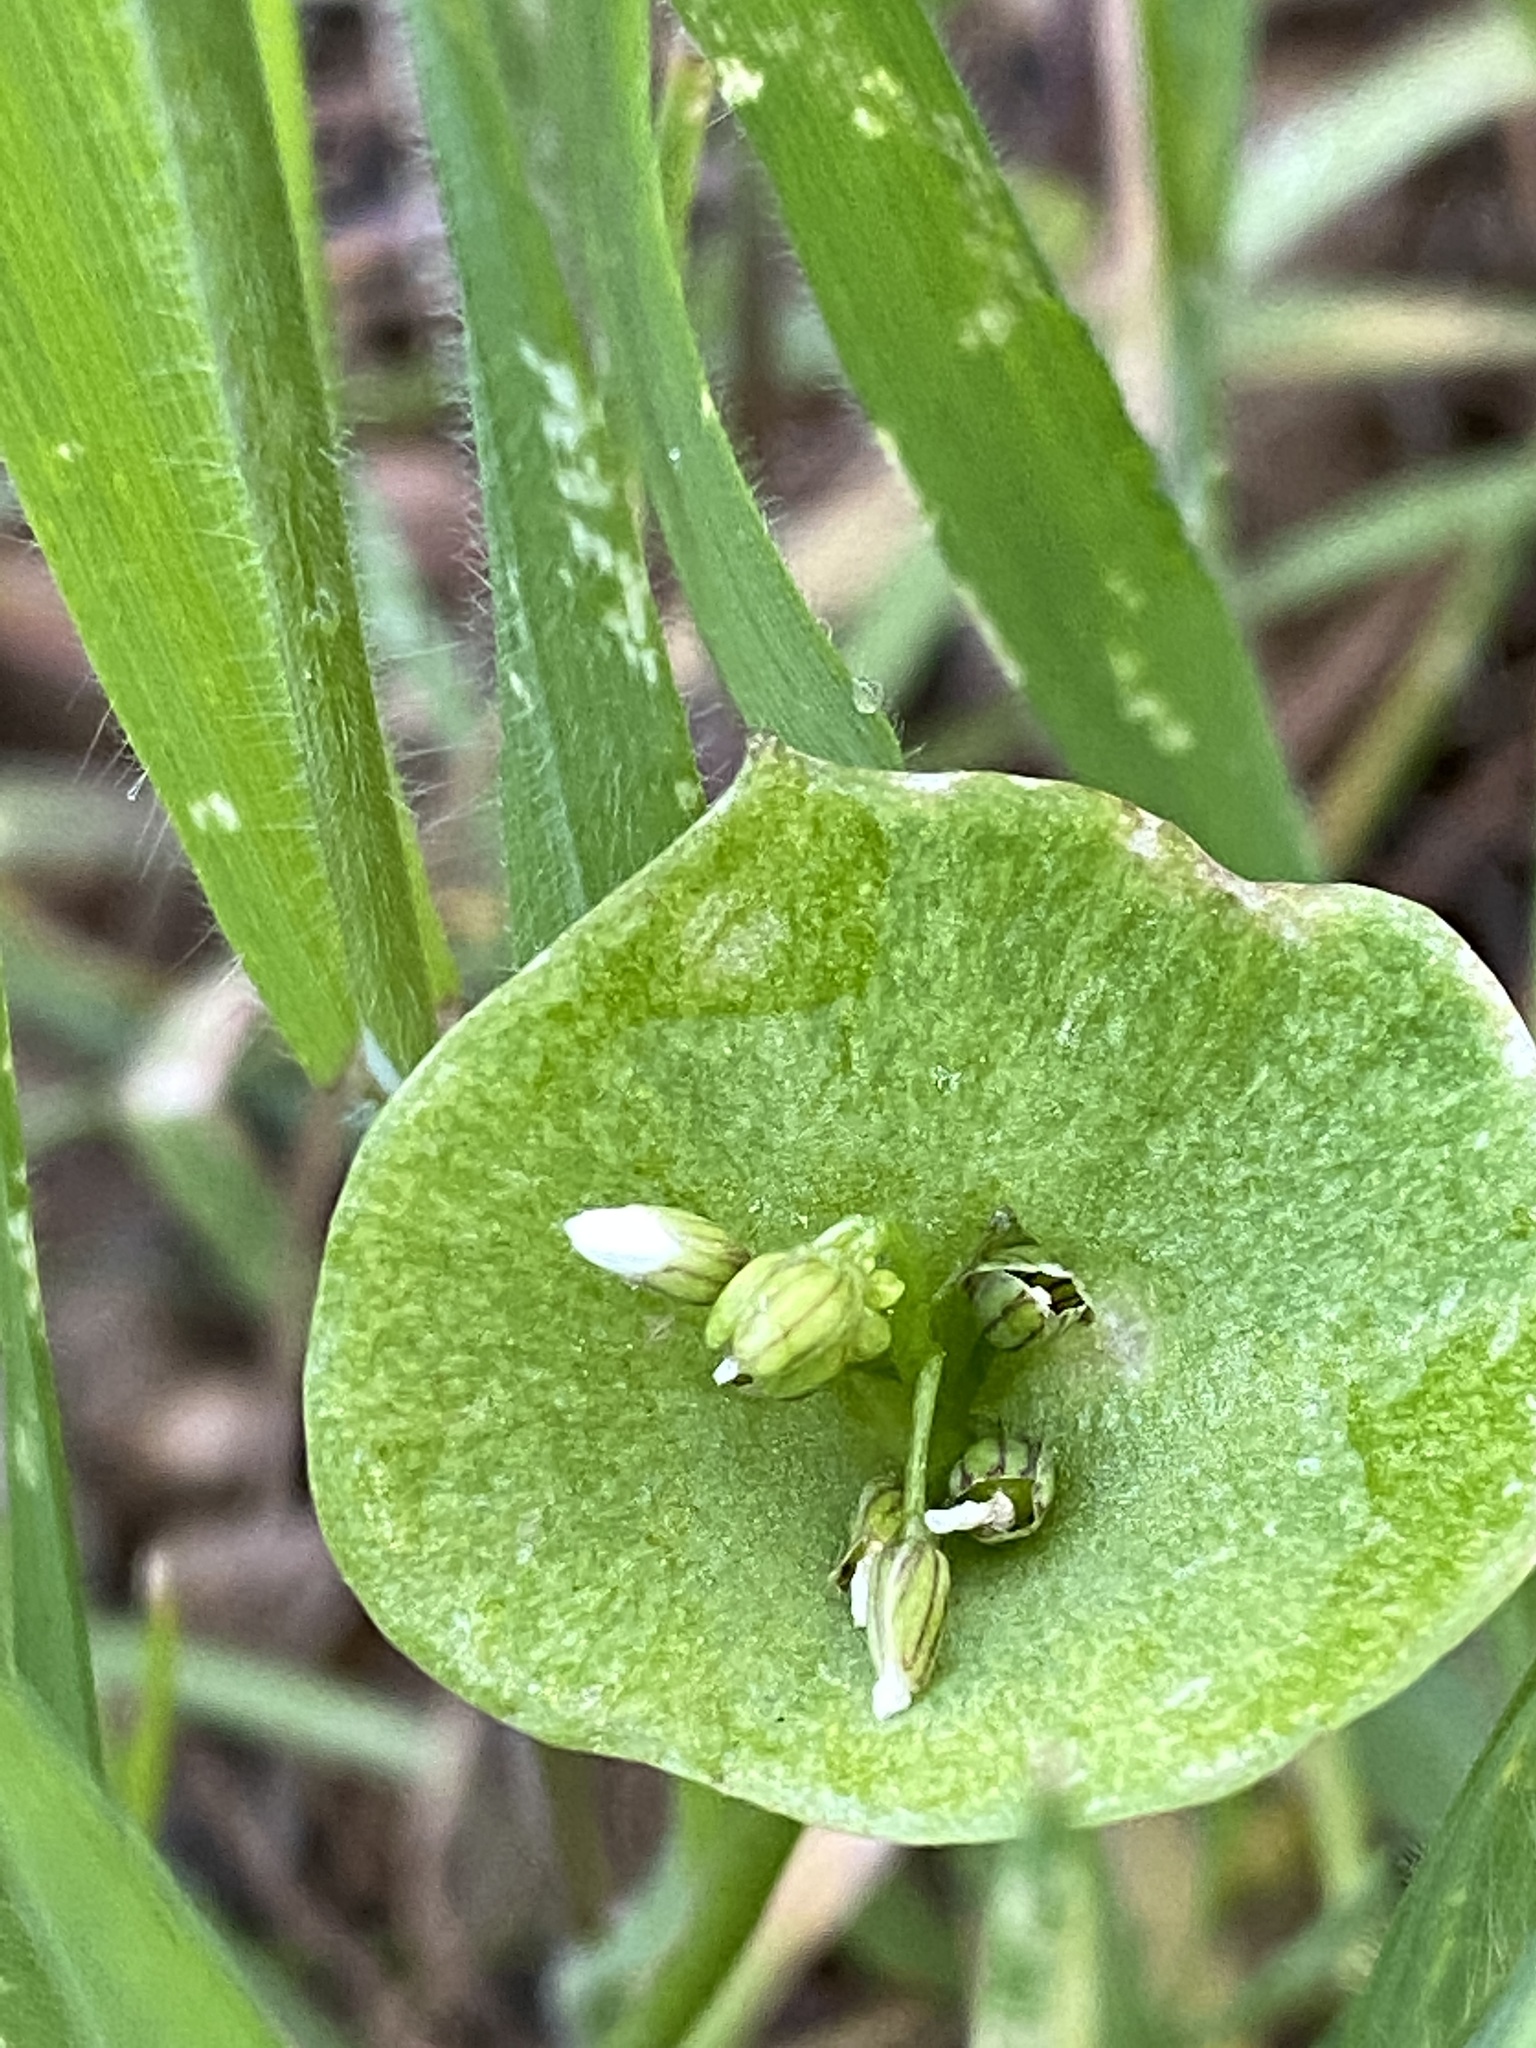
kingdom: Plantae
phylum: Tracheophyta
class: Magnoliopsida
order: Caryophyllales
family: Montiaceae
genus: Claytonia
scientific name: Claytonia perfoliata
